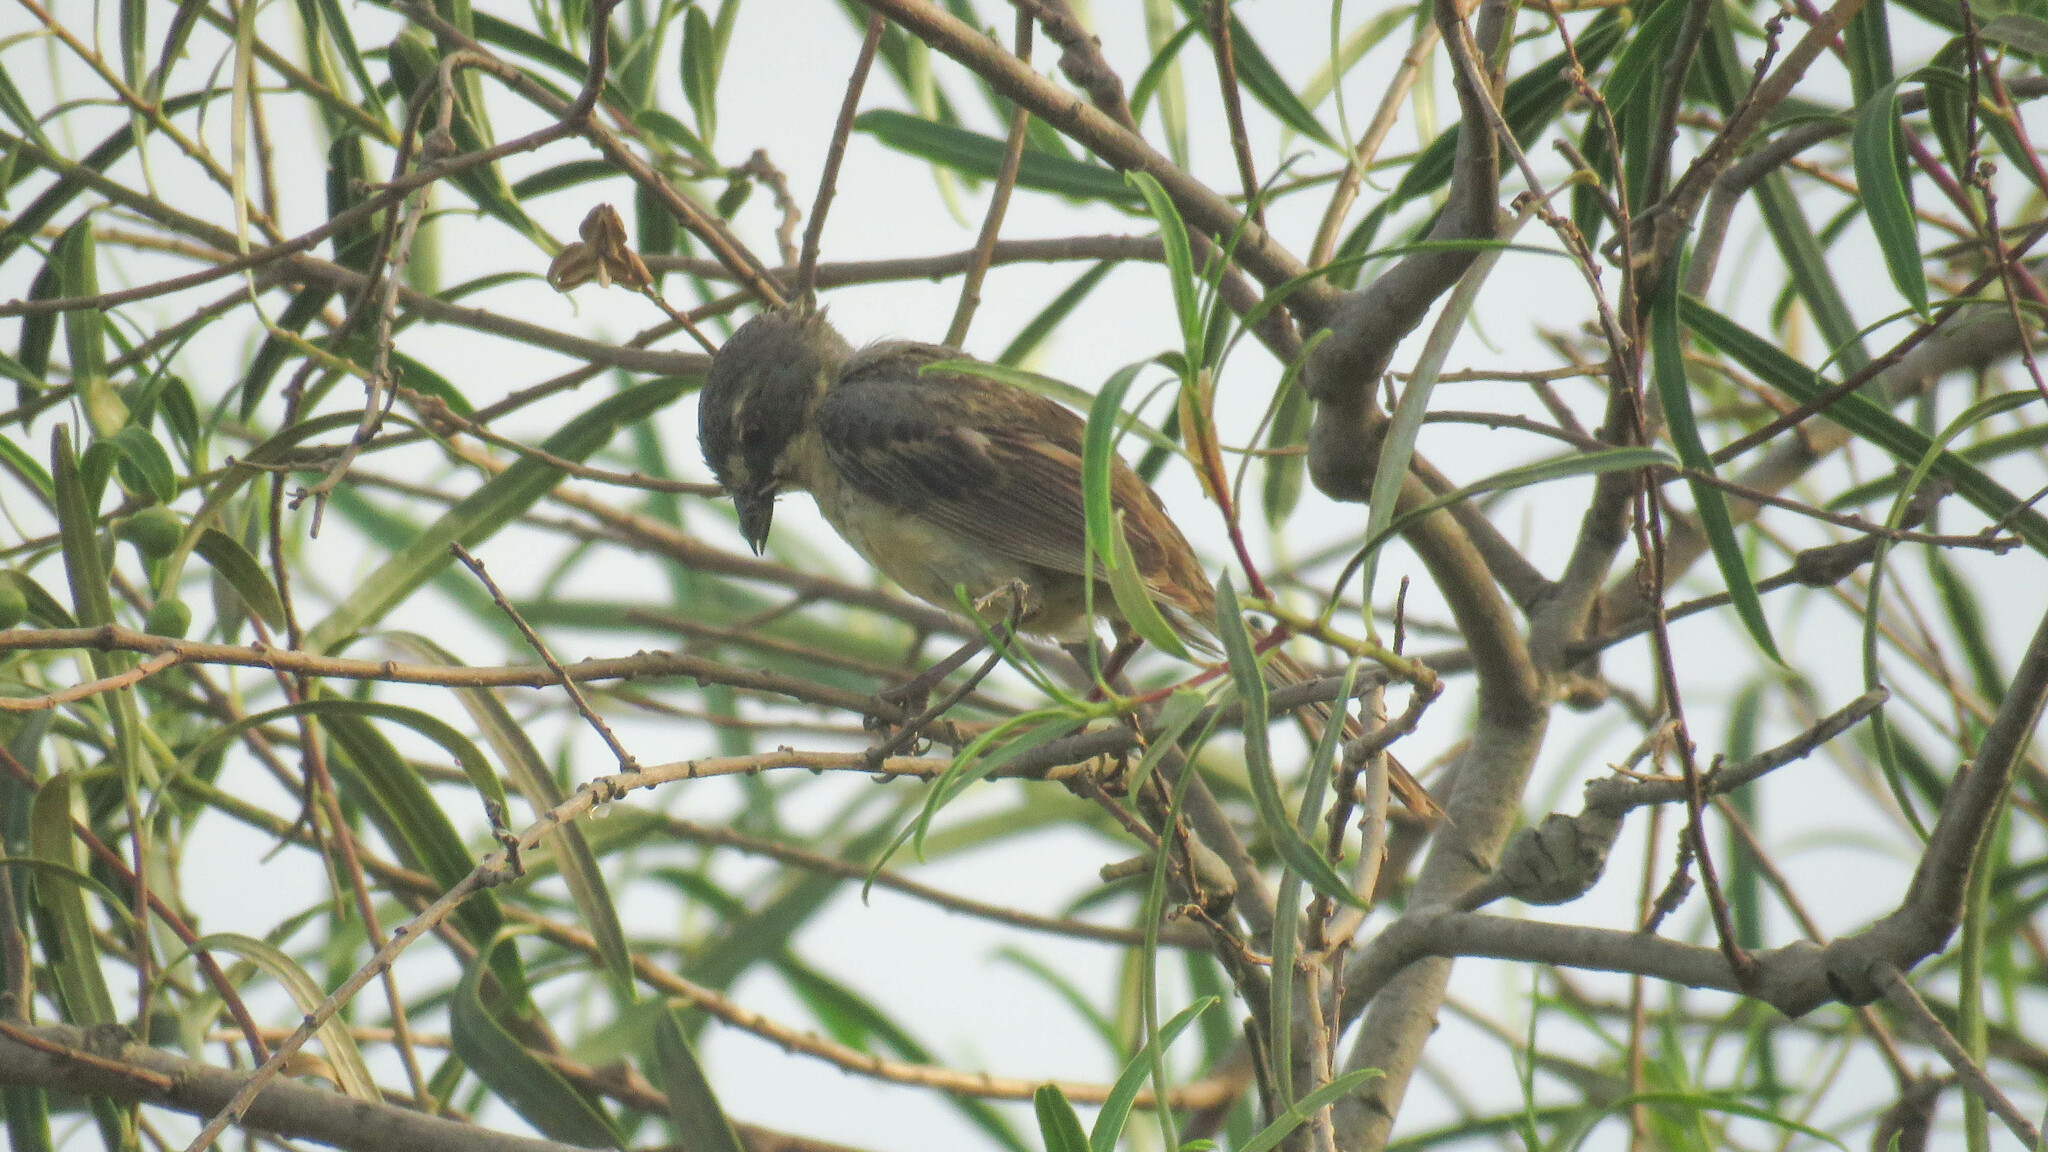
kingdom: Animalia
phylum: Chordata
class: Aves
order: Passeriformes
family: Thraupidae
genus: Donacospiza
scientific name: Donacospiza albifrons
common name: Long-tailed reed finch
